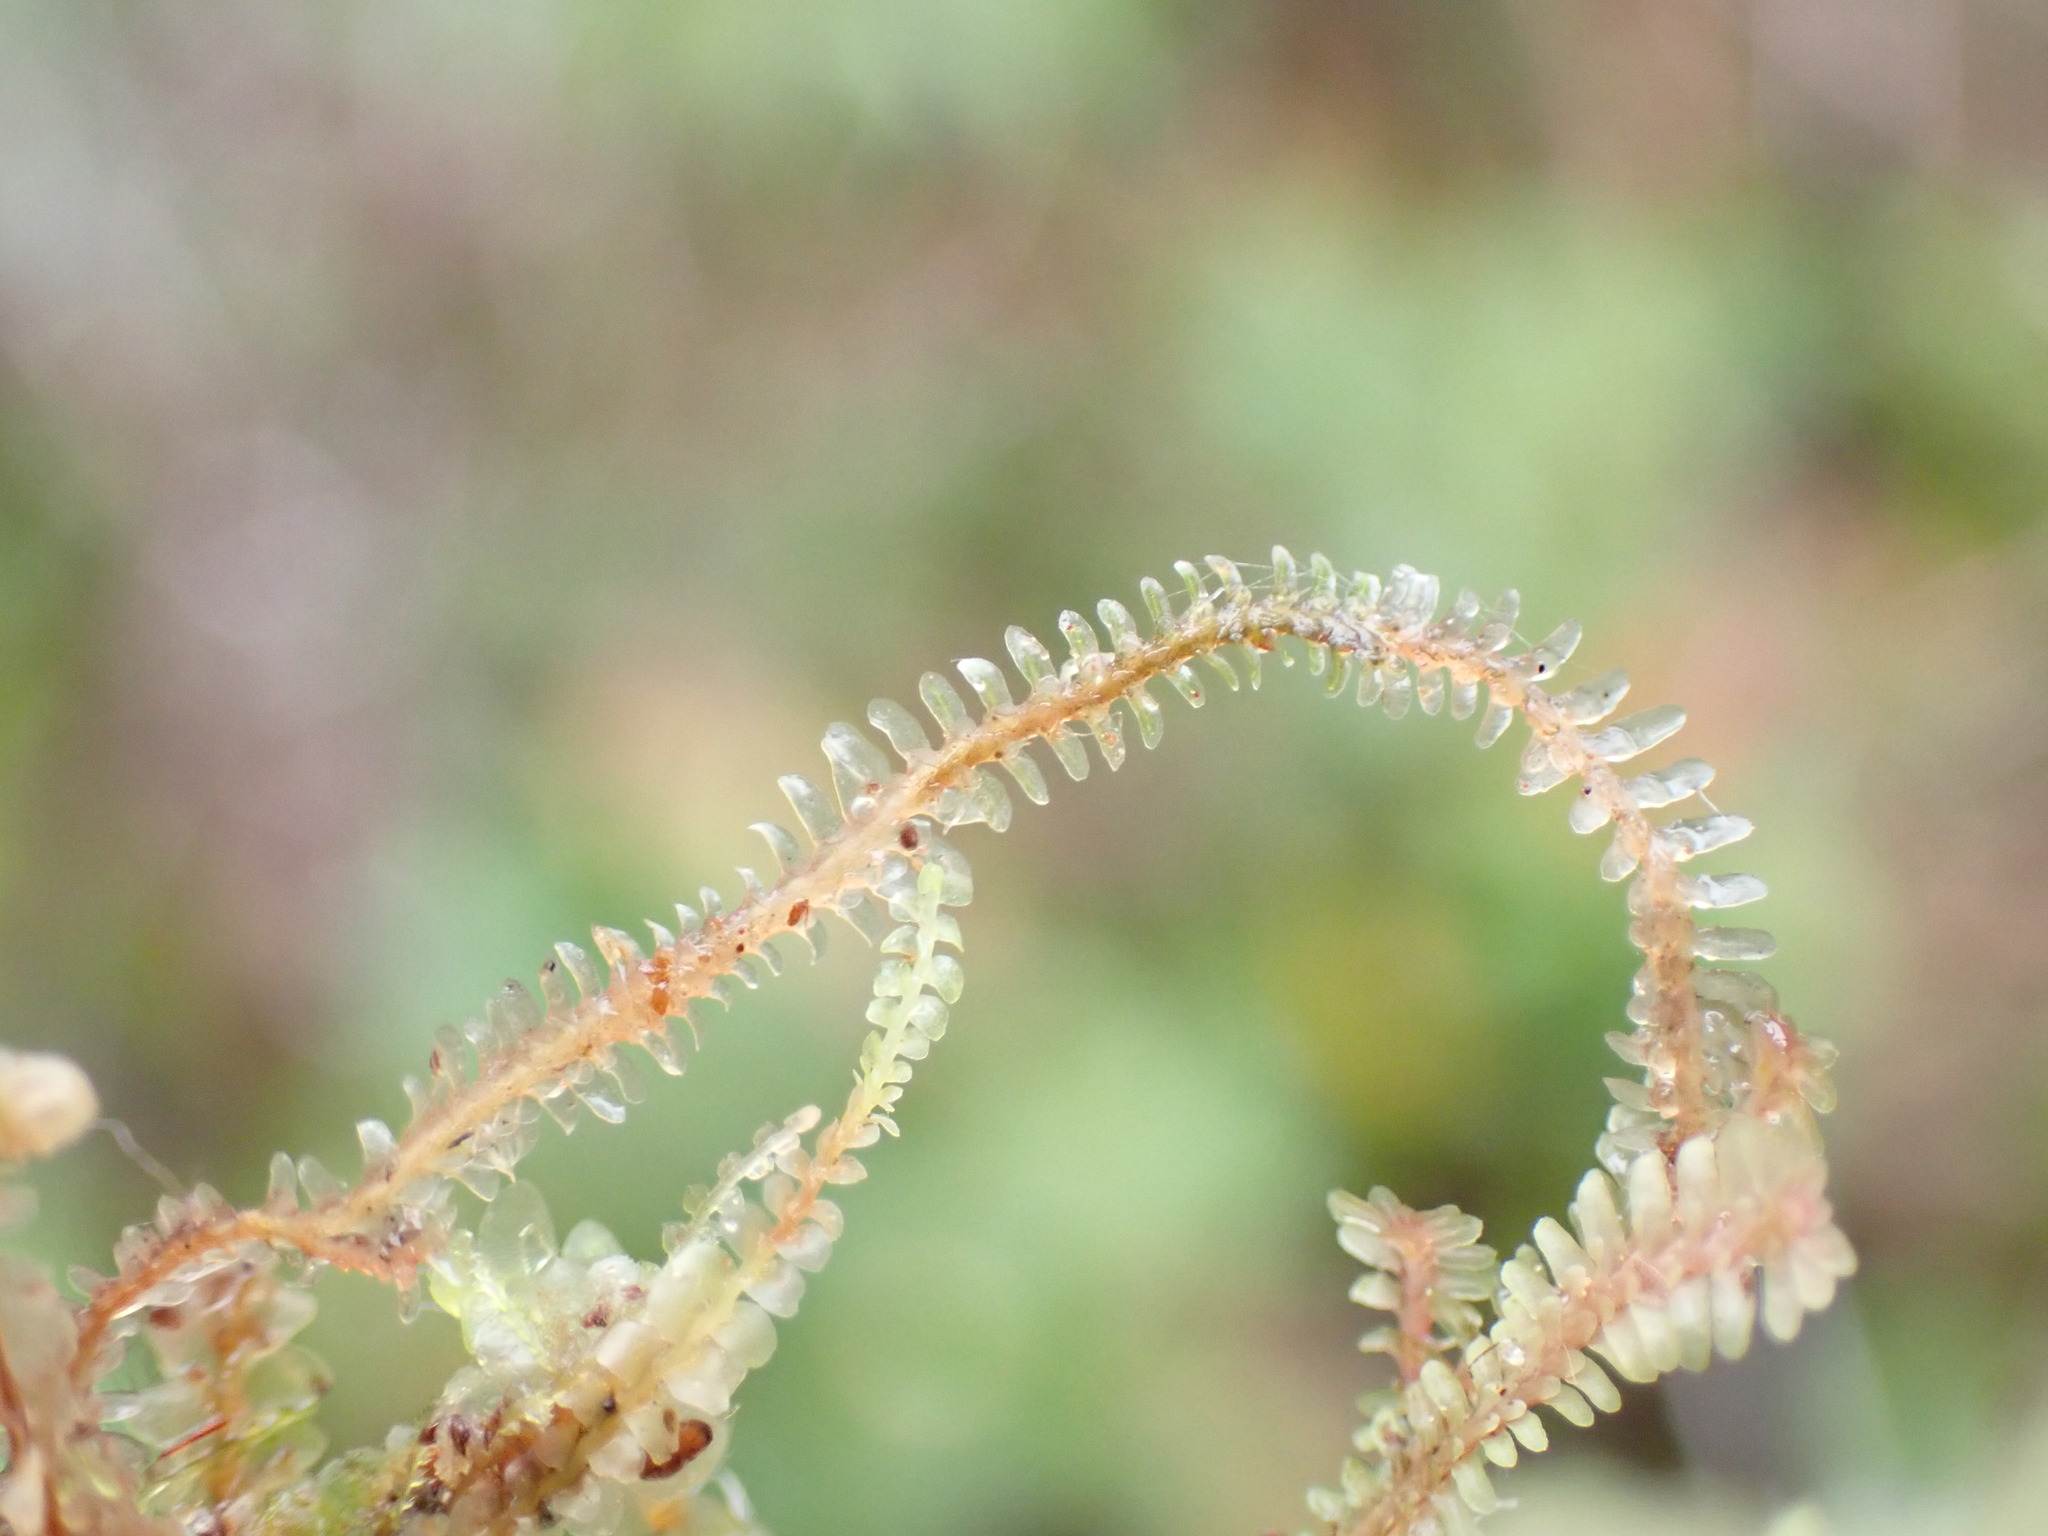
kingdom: Plantae
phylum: Marchantiophyta
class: Jungermanniopsida
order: Jungermanniales
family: Scapaniaceae
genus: Diplophyllum
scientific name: Diplophyllum albicans
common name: White earwort
